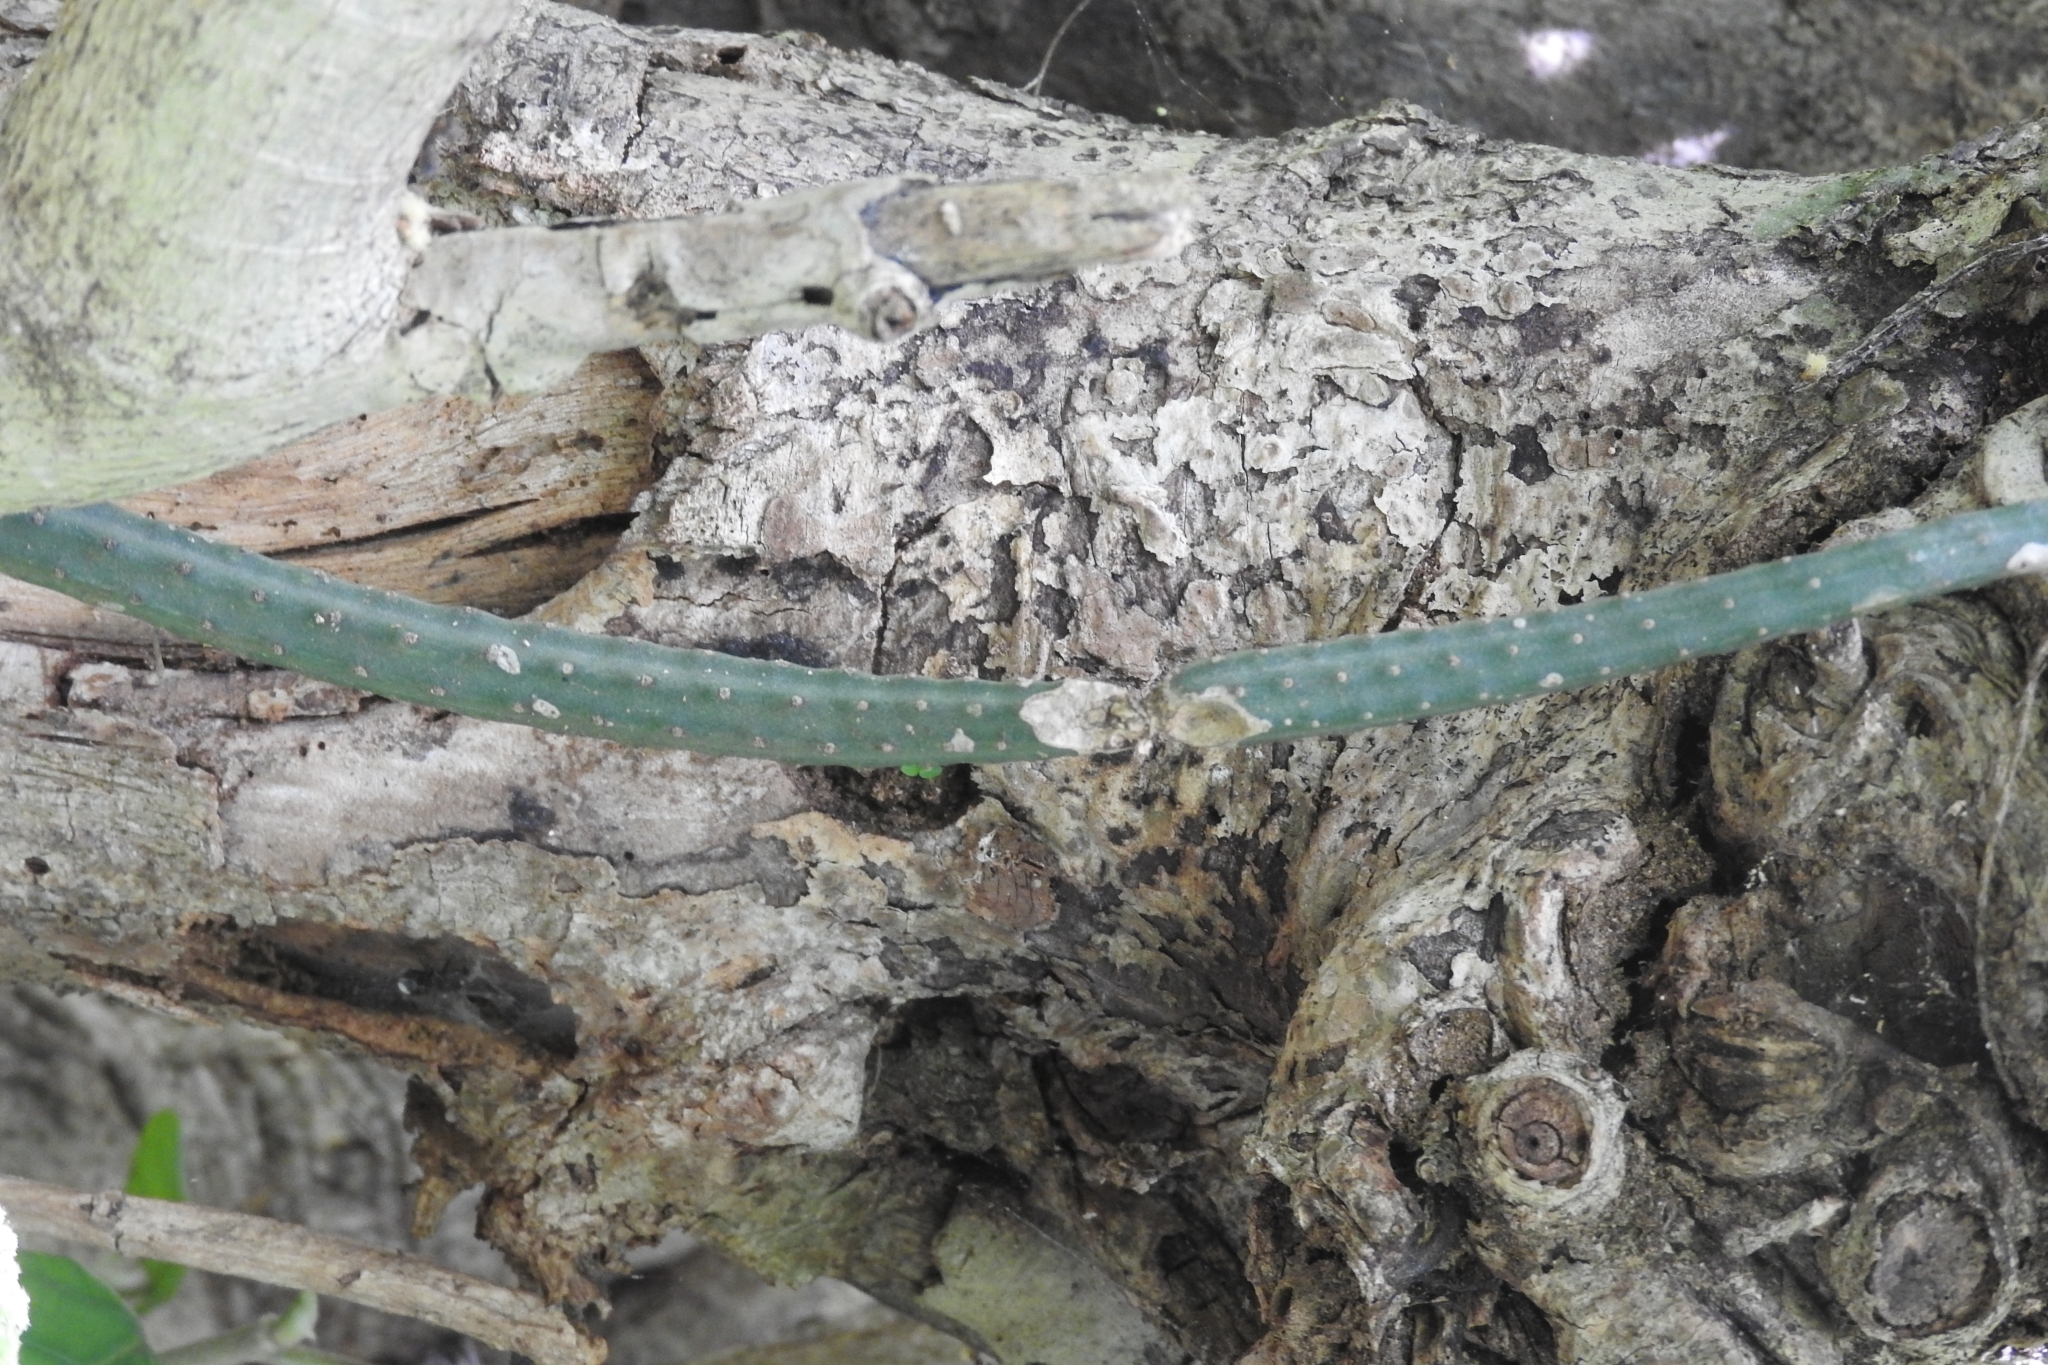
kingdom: Plantae
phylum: Tracheophyta
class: Magnoliopsida
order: Caryophyllales
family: Cactaceae
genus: Selenicereus
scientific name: Selenicereus grandiflorus
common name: Queen of the night
